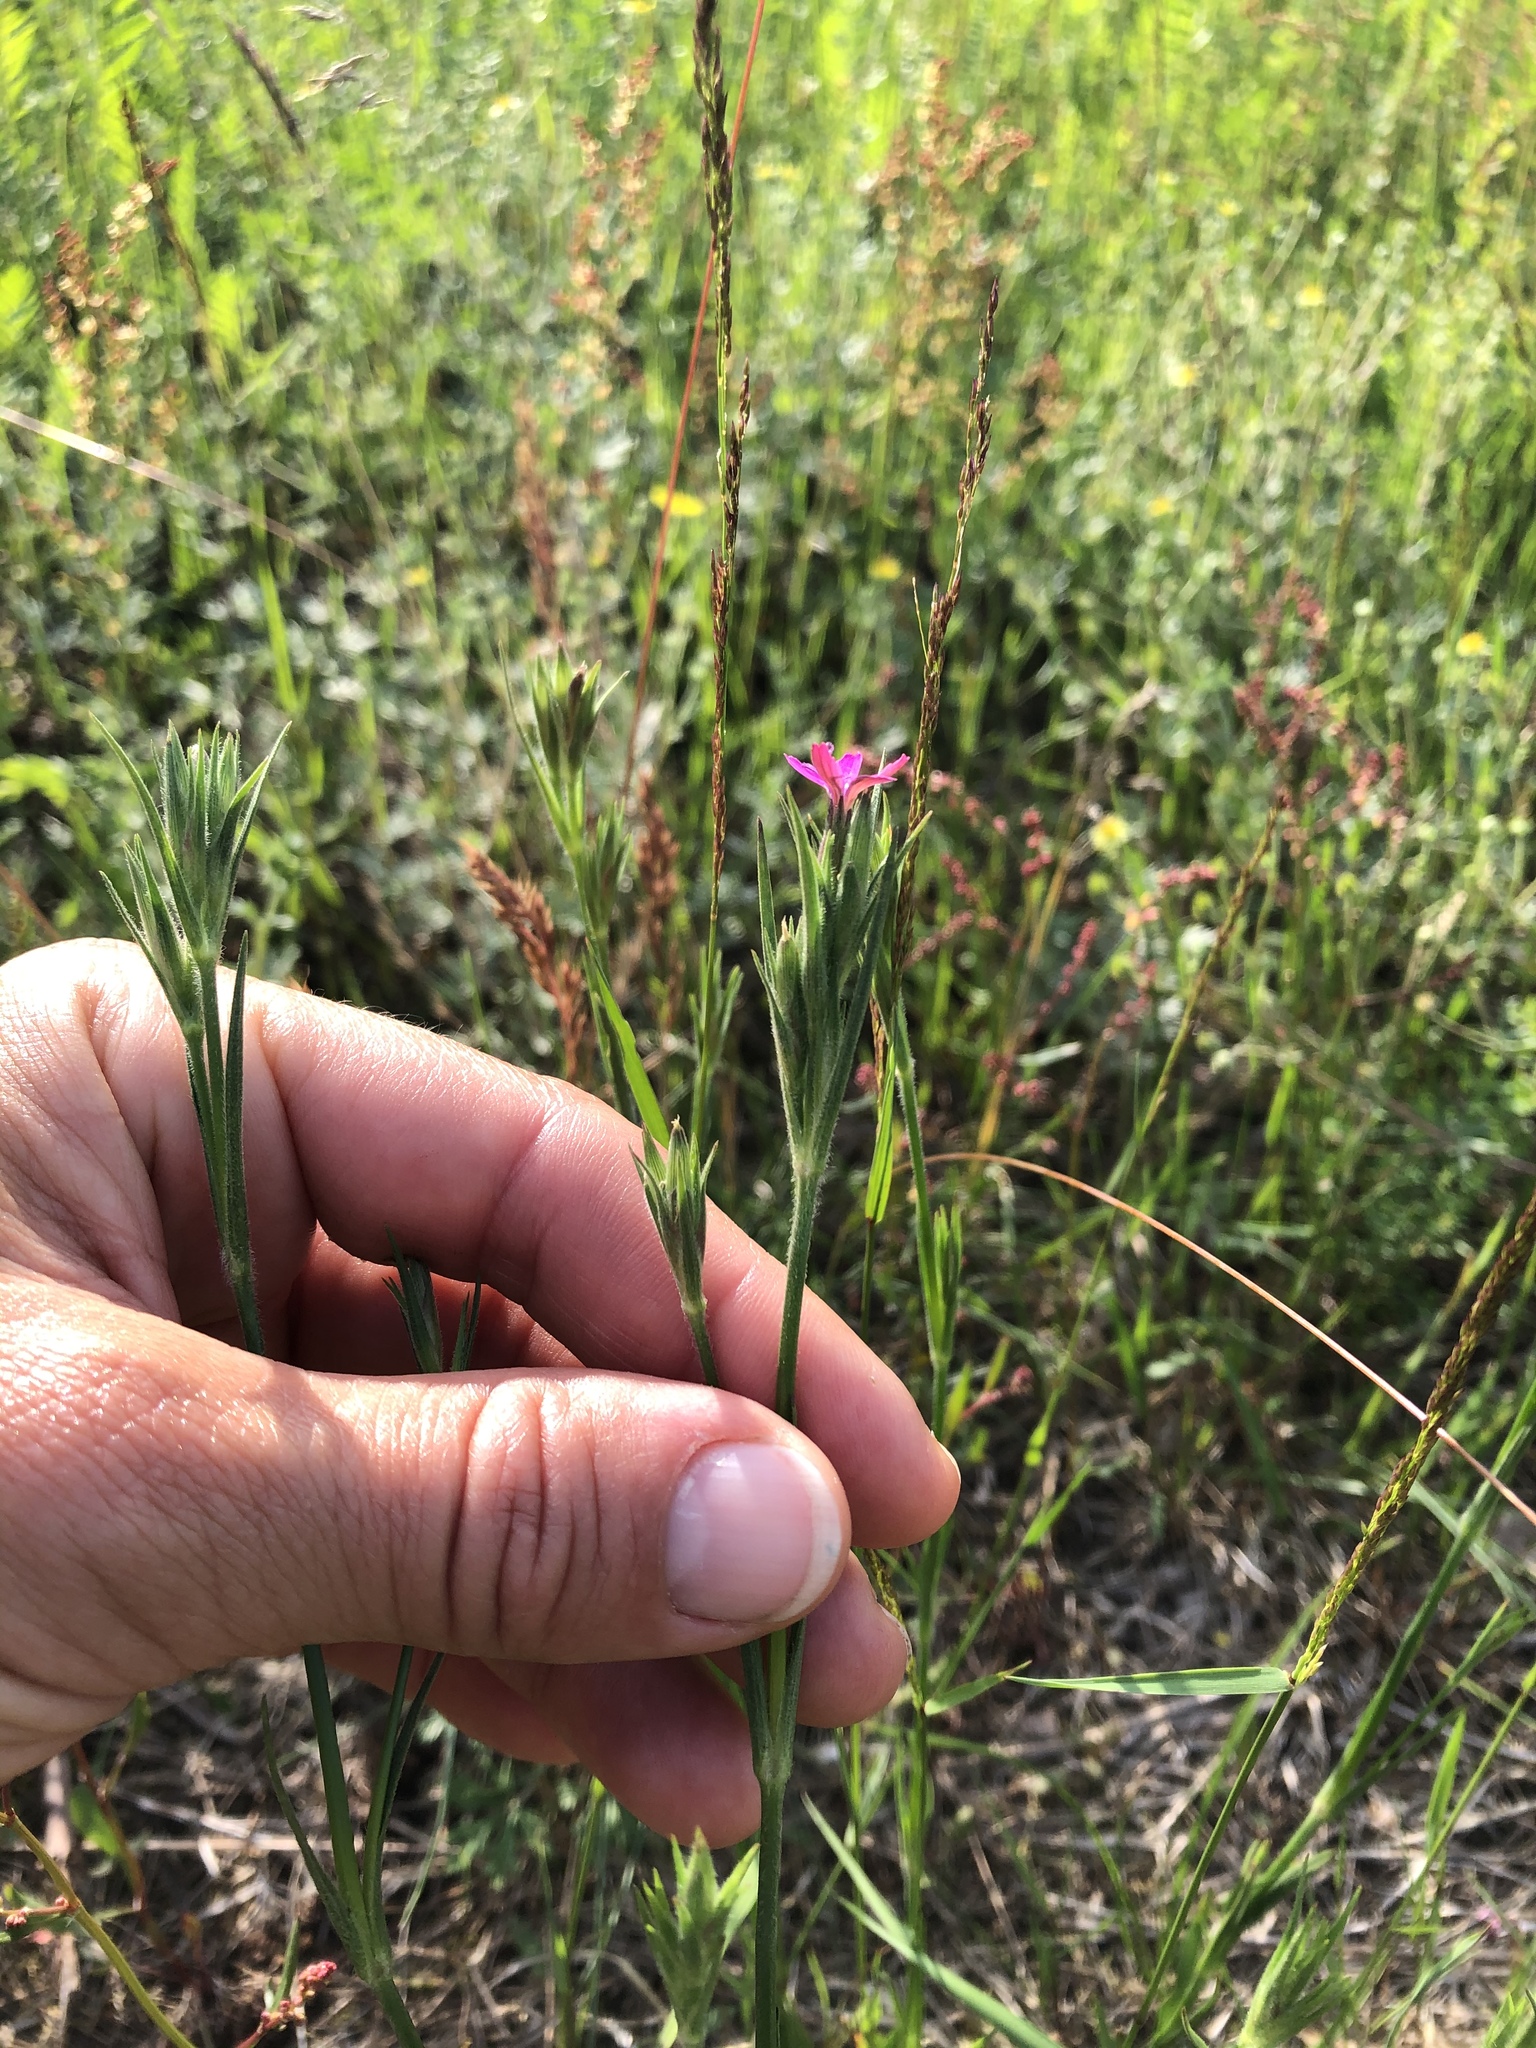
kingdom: Plantae
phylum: Tracheophyta
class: Magnoliopsida
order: Caryophyllales
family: Caryophyllaceae
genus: Dianthus
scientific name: Dianthus armeria
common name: Deptford pink
